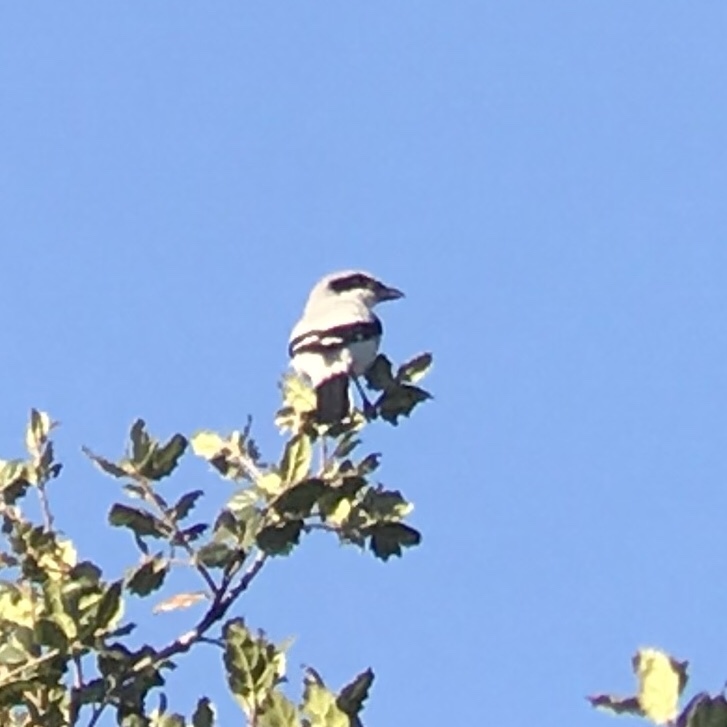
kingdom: Animalia
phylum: Chordata
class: Aves
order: Passeriformes
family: Laniidae
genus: Lanius
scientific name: Lanius ludovicianus
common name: Loggerhead shrike
